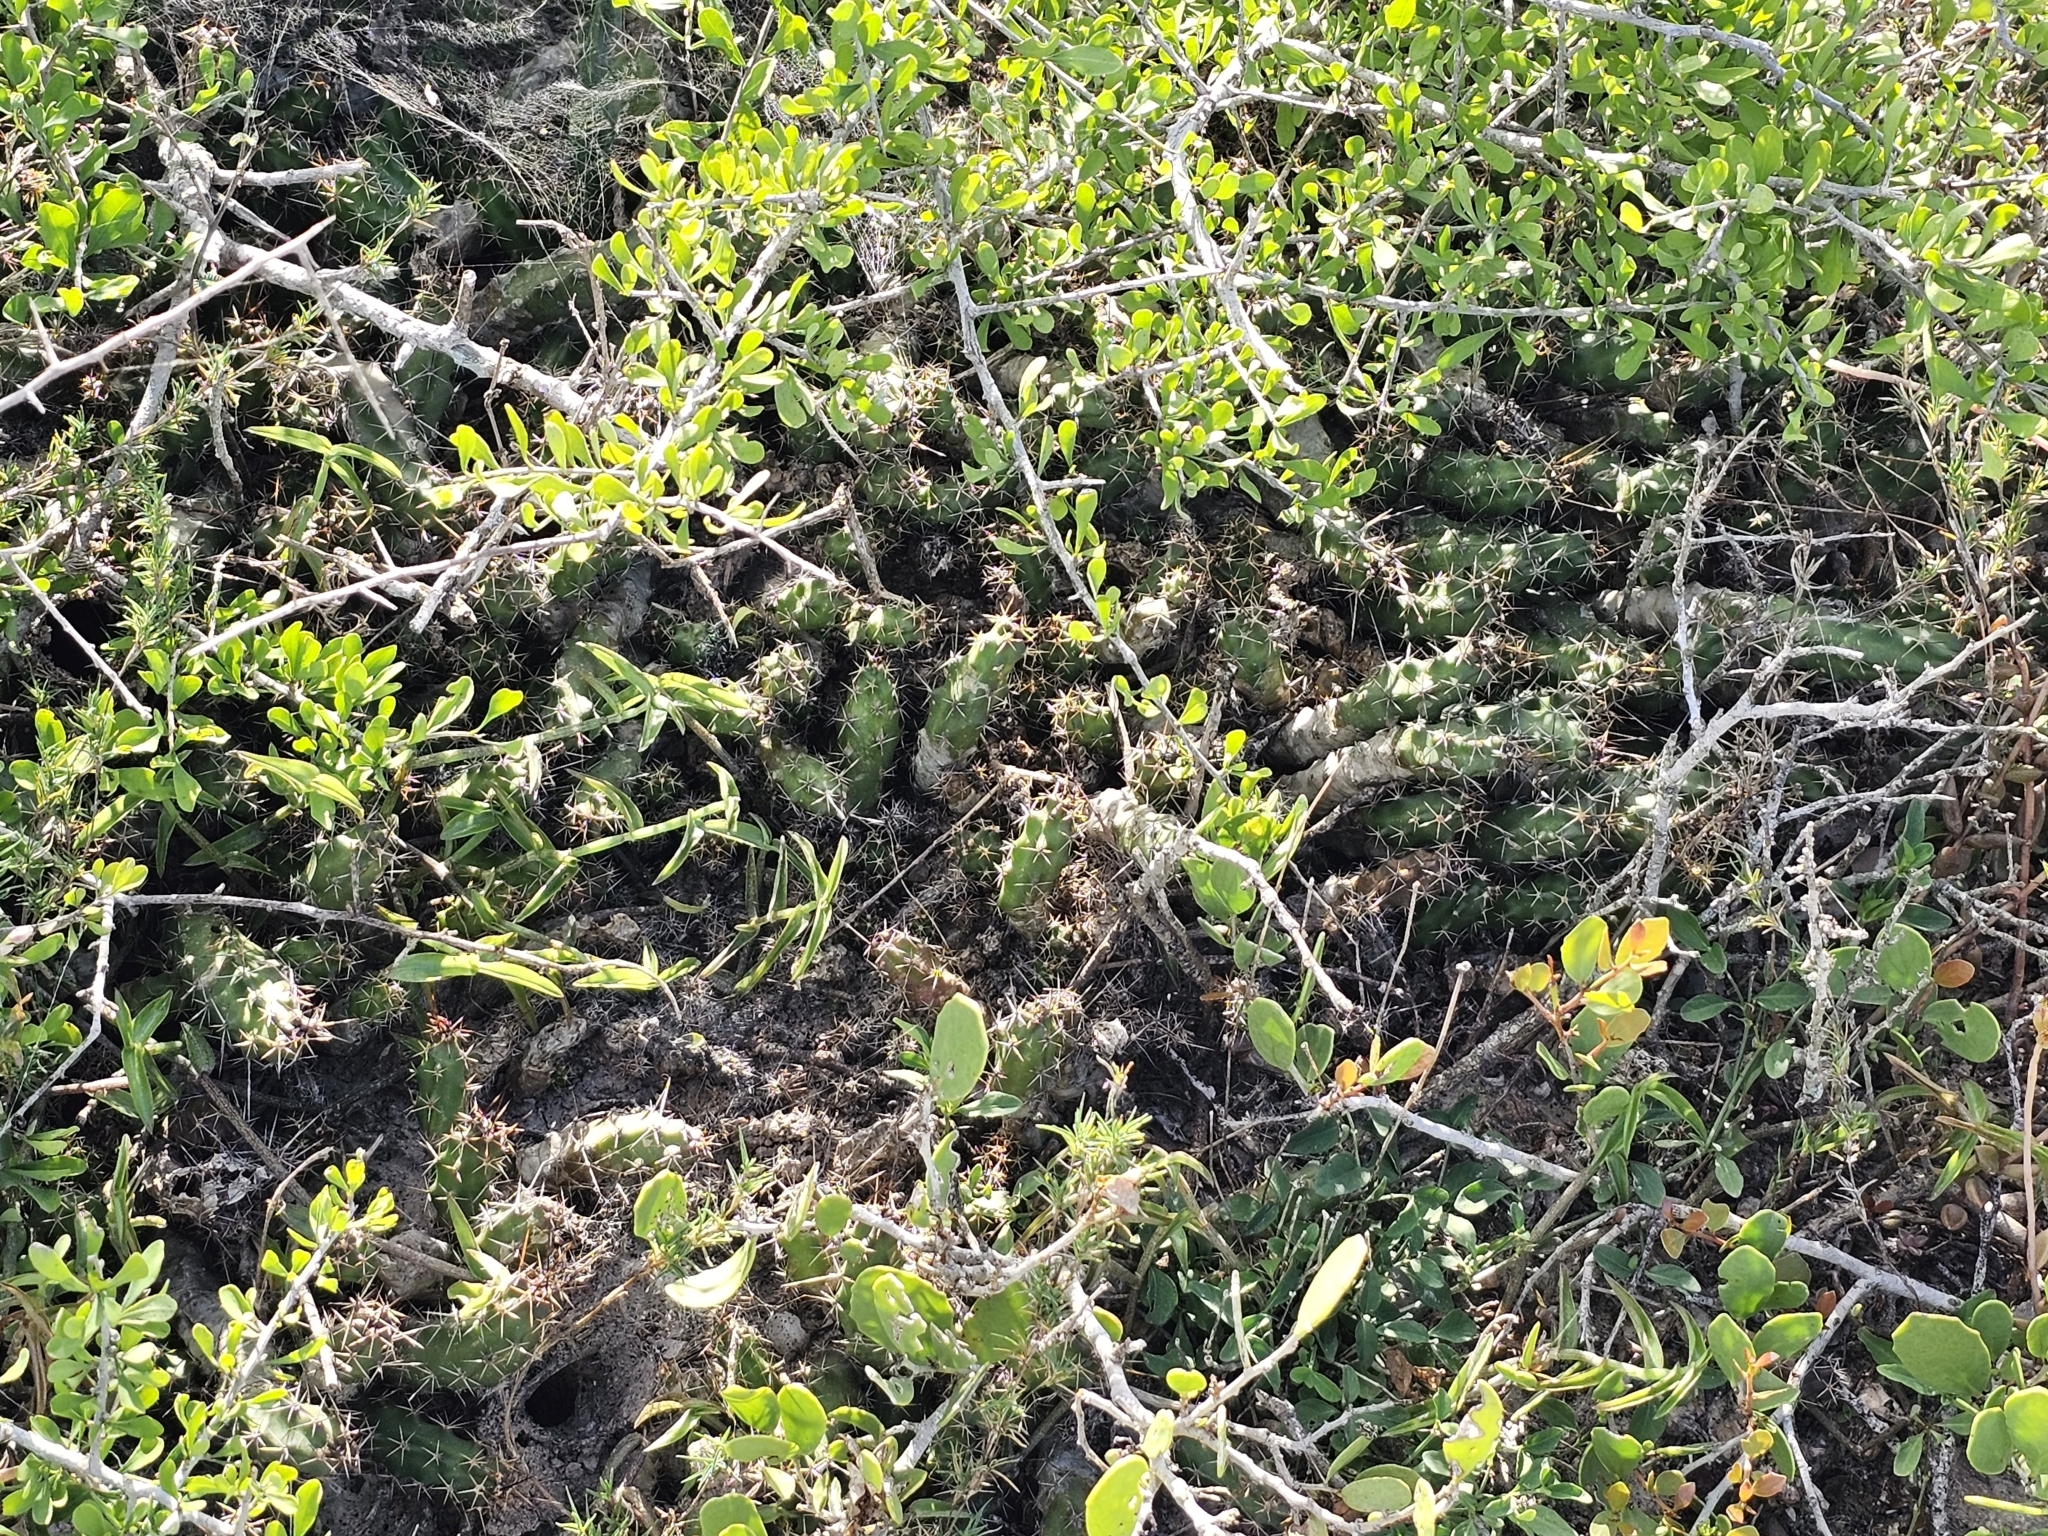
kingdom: Plantae
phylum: Tracheophyta
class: Magnoliopsida
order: Caryophyllales
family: Cactaceae
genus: Echinocereus
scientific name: Echinocereus pentalophus
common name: Ladyfinger cactus
